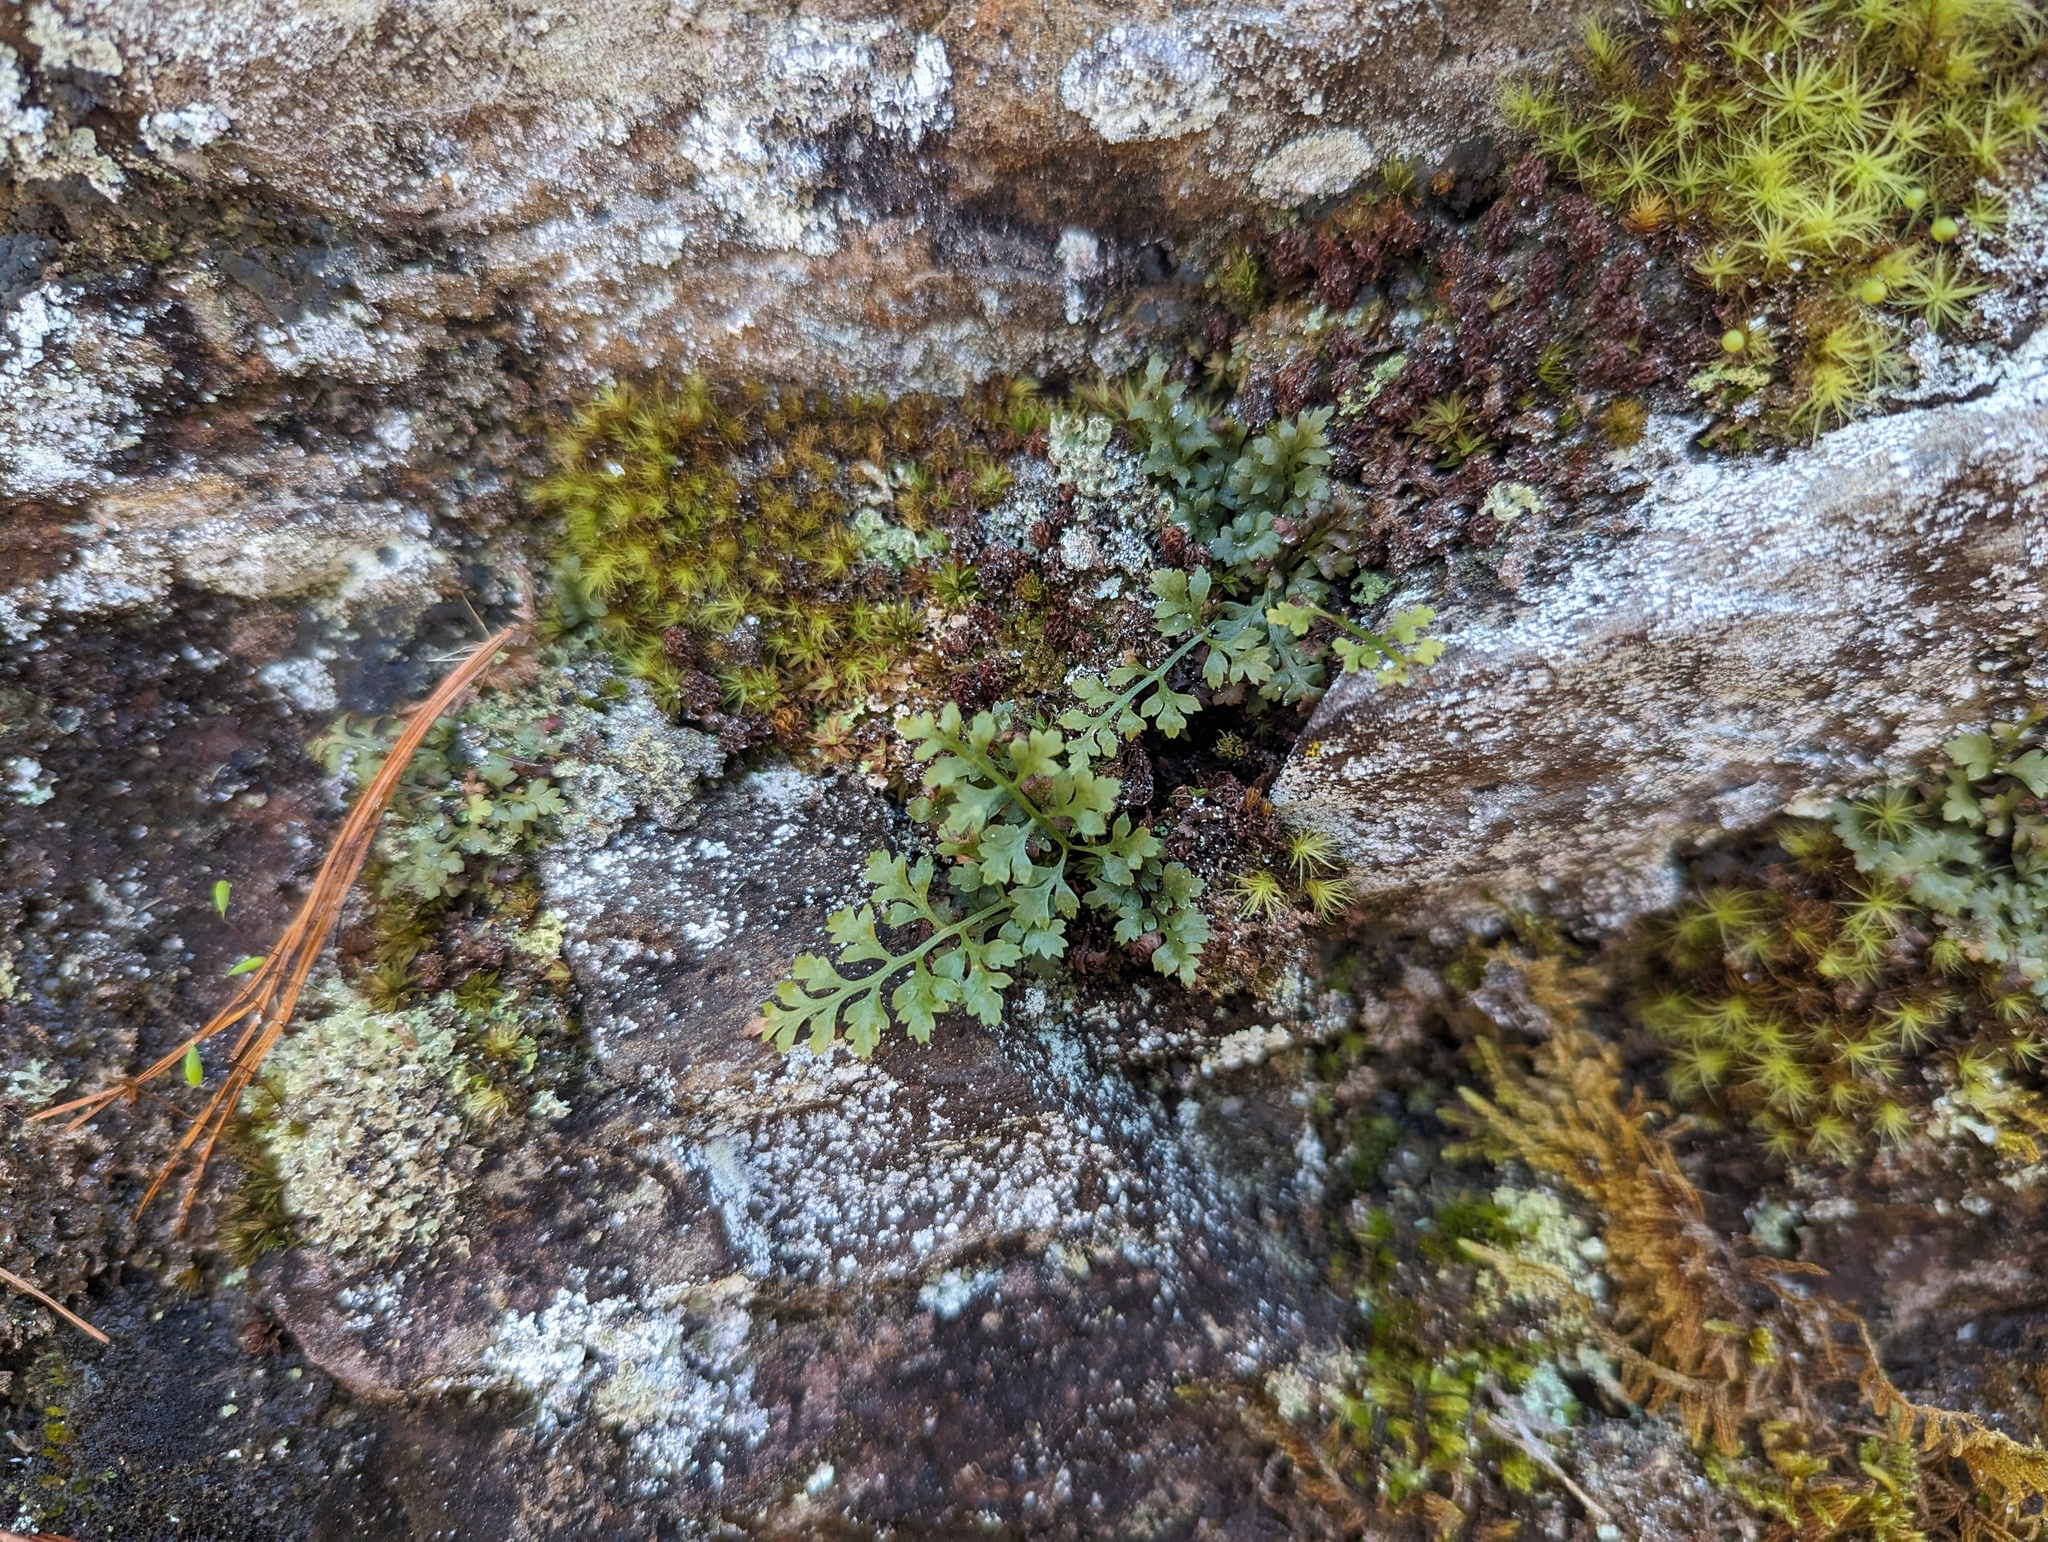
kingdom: Plantae
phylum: Tracheophyta
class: Polypodiopsida
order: Polypodiales
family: Aspleniaceae
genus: Asplenium
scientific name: Asplenium montanum
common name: Mountain spleenwort
